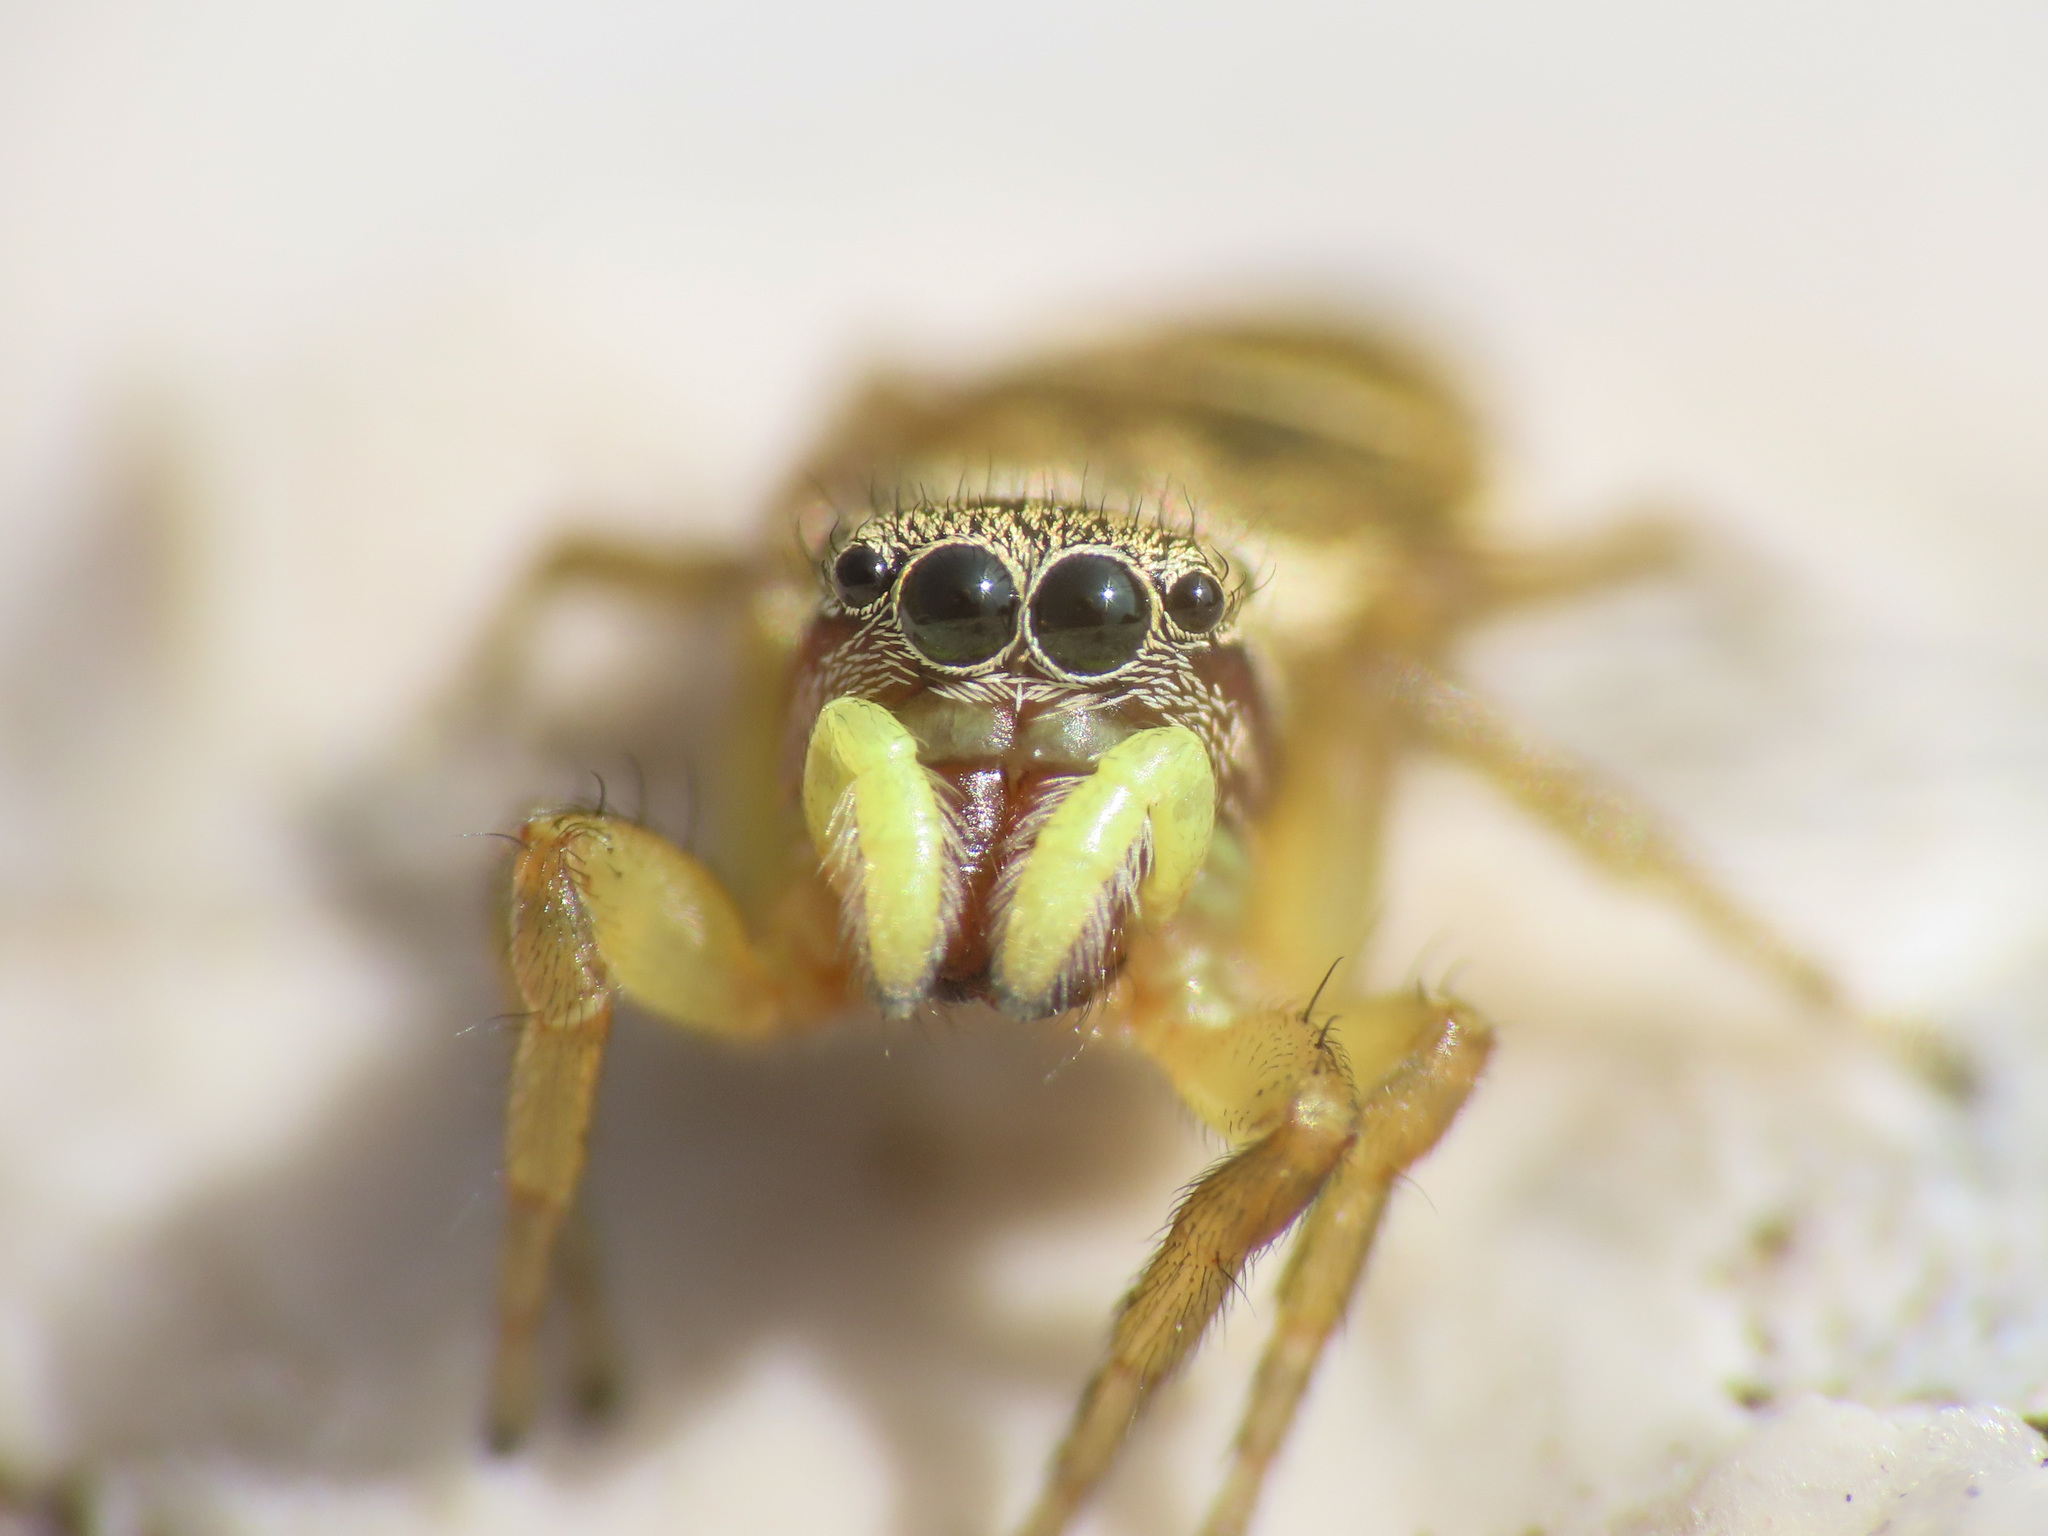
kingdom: Animalia
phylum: Arthropoda
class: Arachnida
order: Araneae
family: Salticidae
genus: Heliophanus
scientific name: Heliophanus tribulosus
